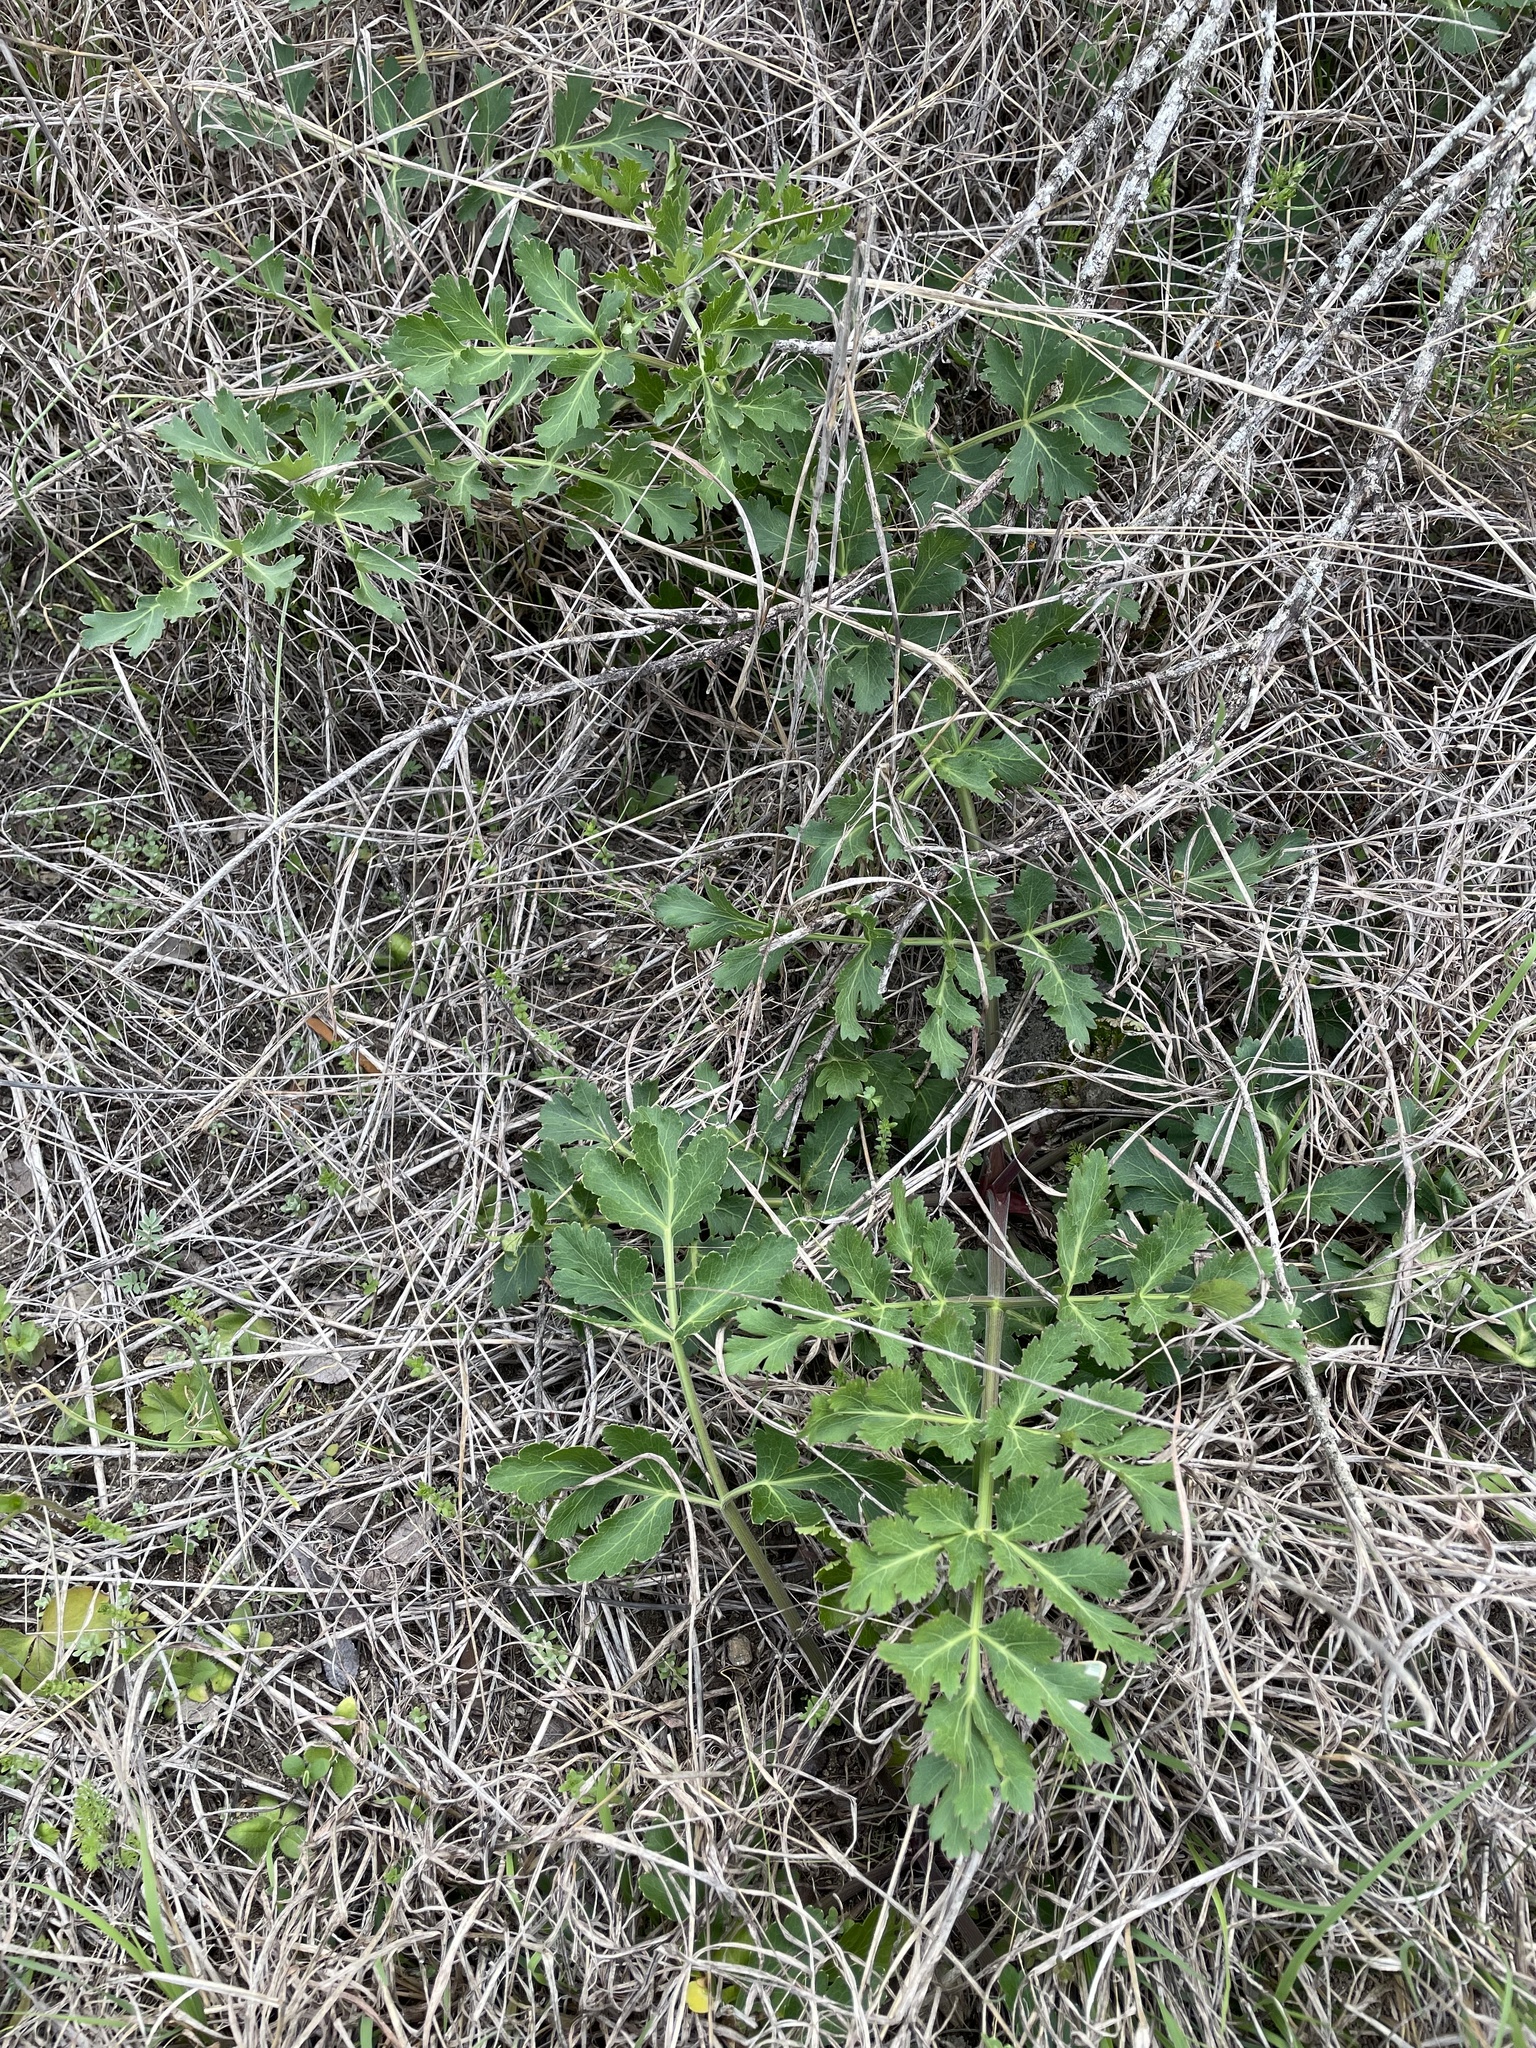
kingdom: Plantae
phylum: Tracheophyta
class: Magnoliopsida
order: Apiales
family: Apiaceae
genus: Polytaenia
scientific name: Polytaenia texana
